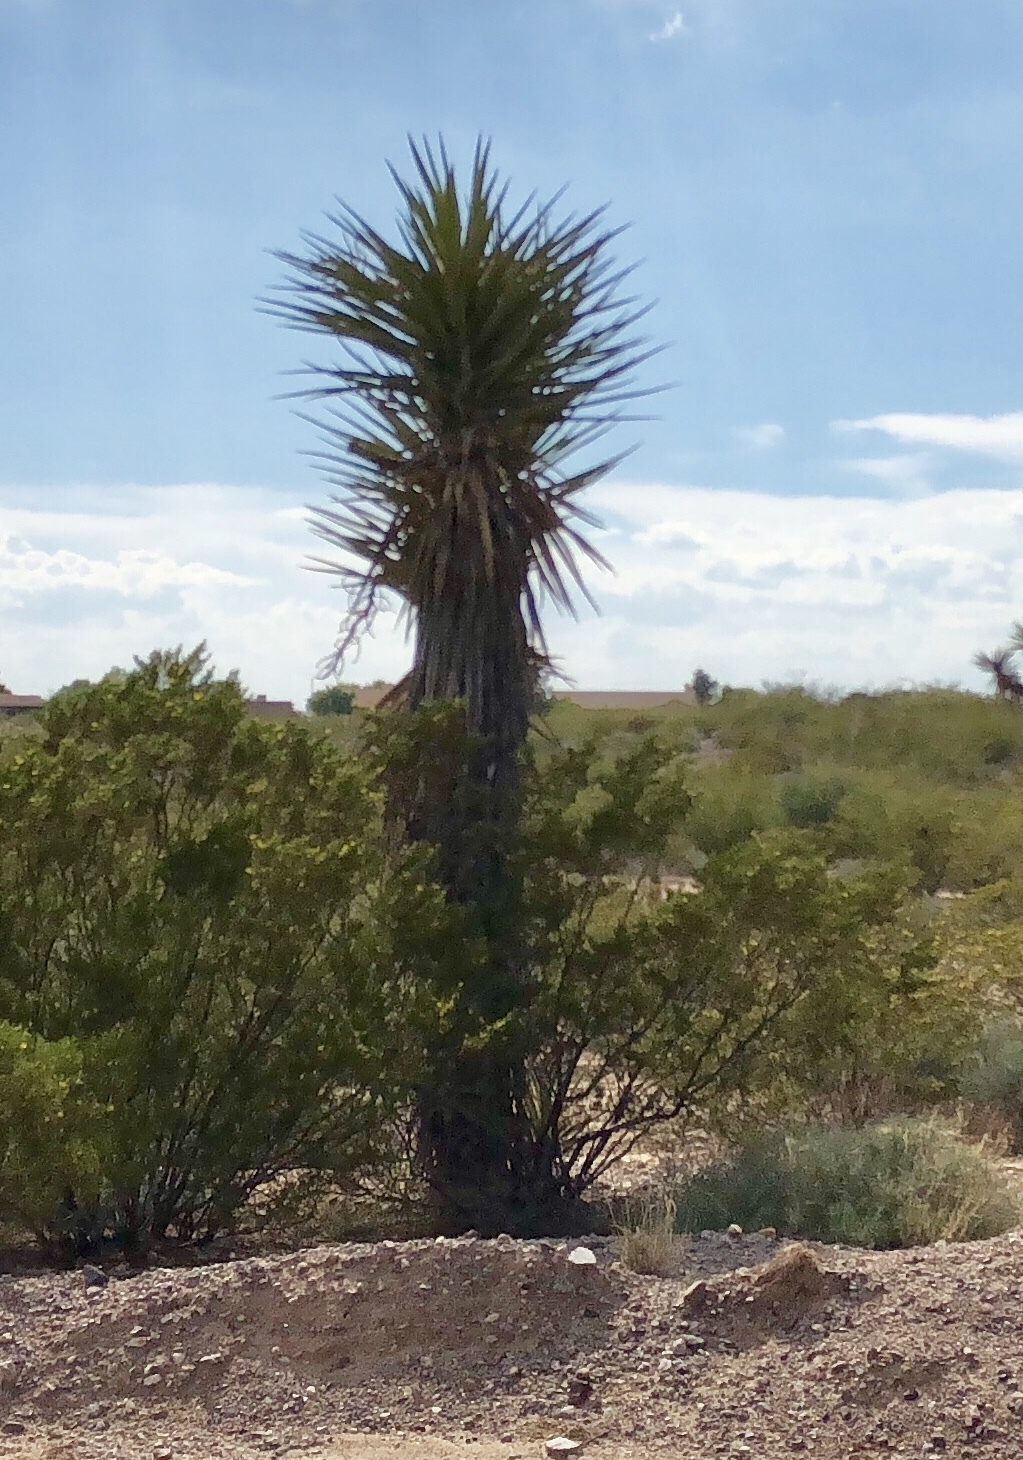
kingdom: Plantae
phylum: Tracheophyta
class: Liliopsida
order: Asparagales
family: Asparagaceae
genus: Yucca
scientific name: Yucca treculiana
